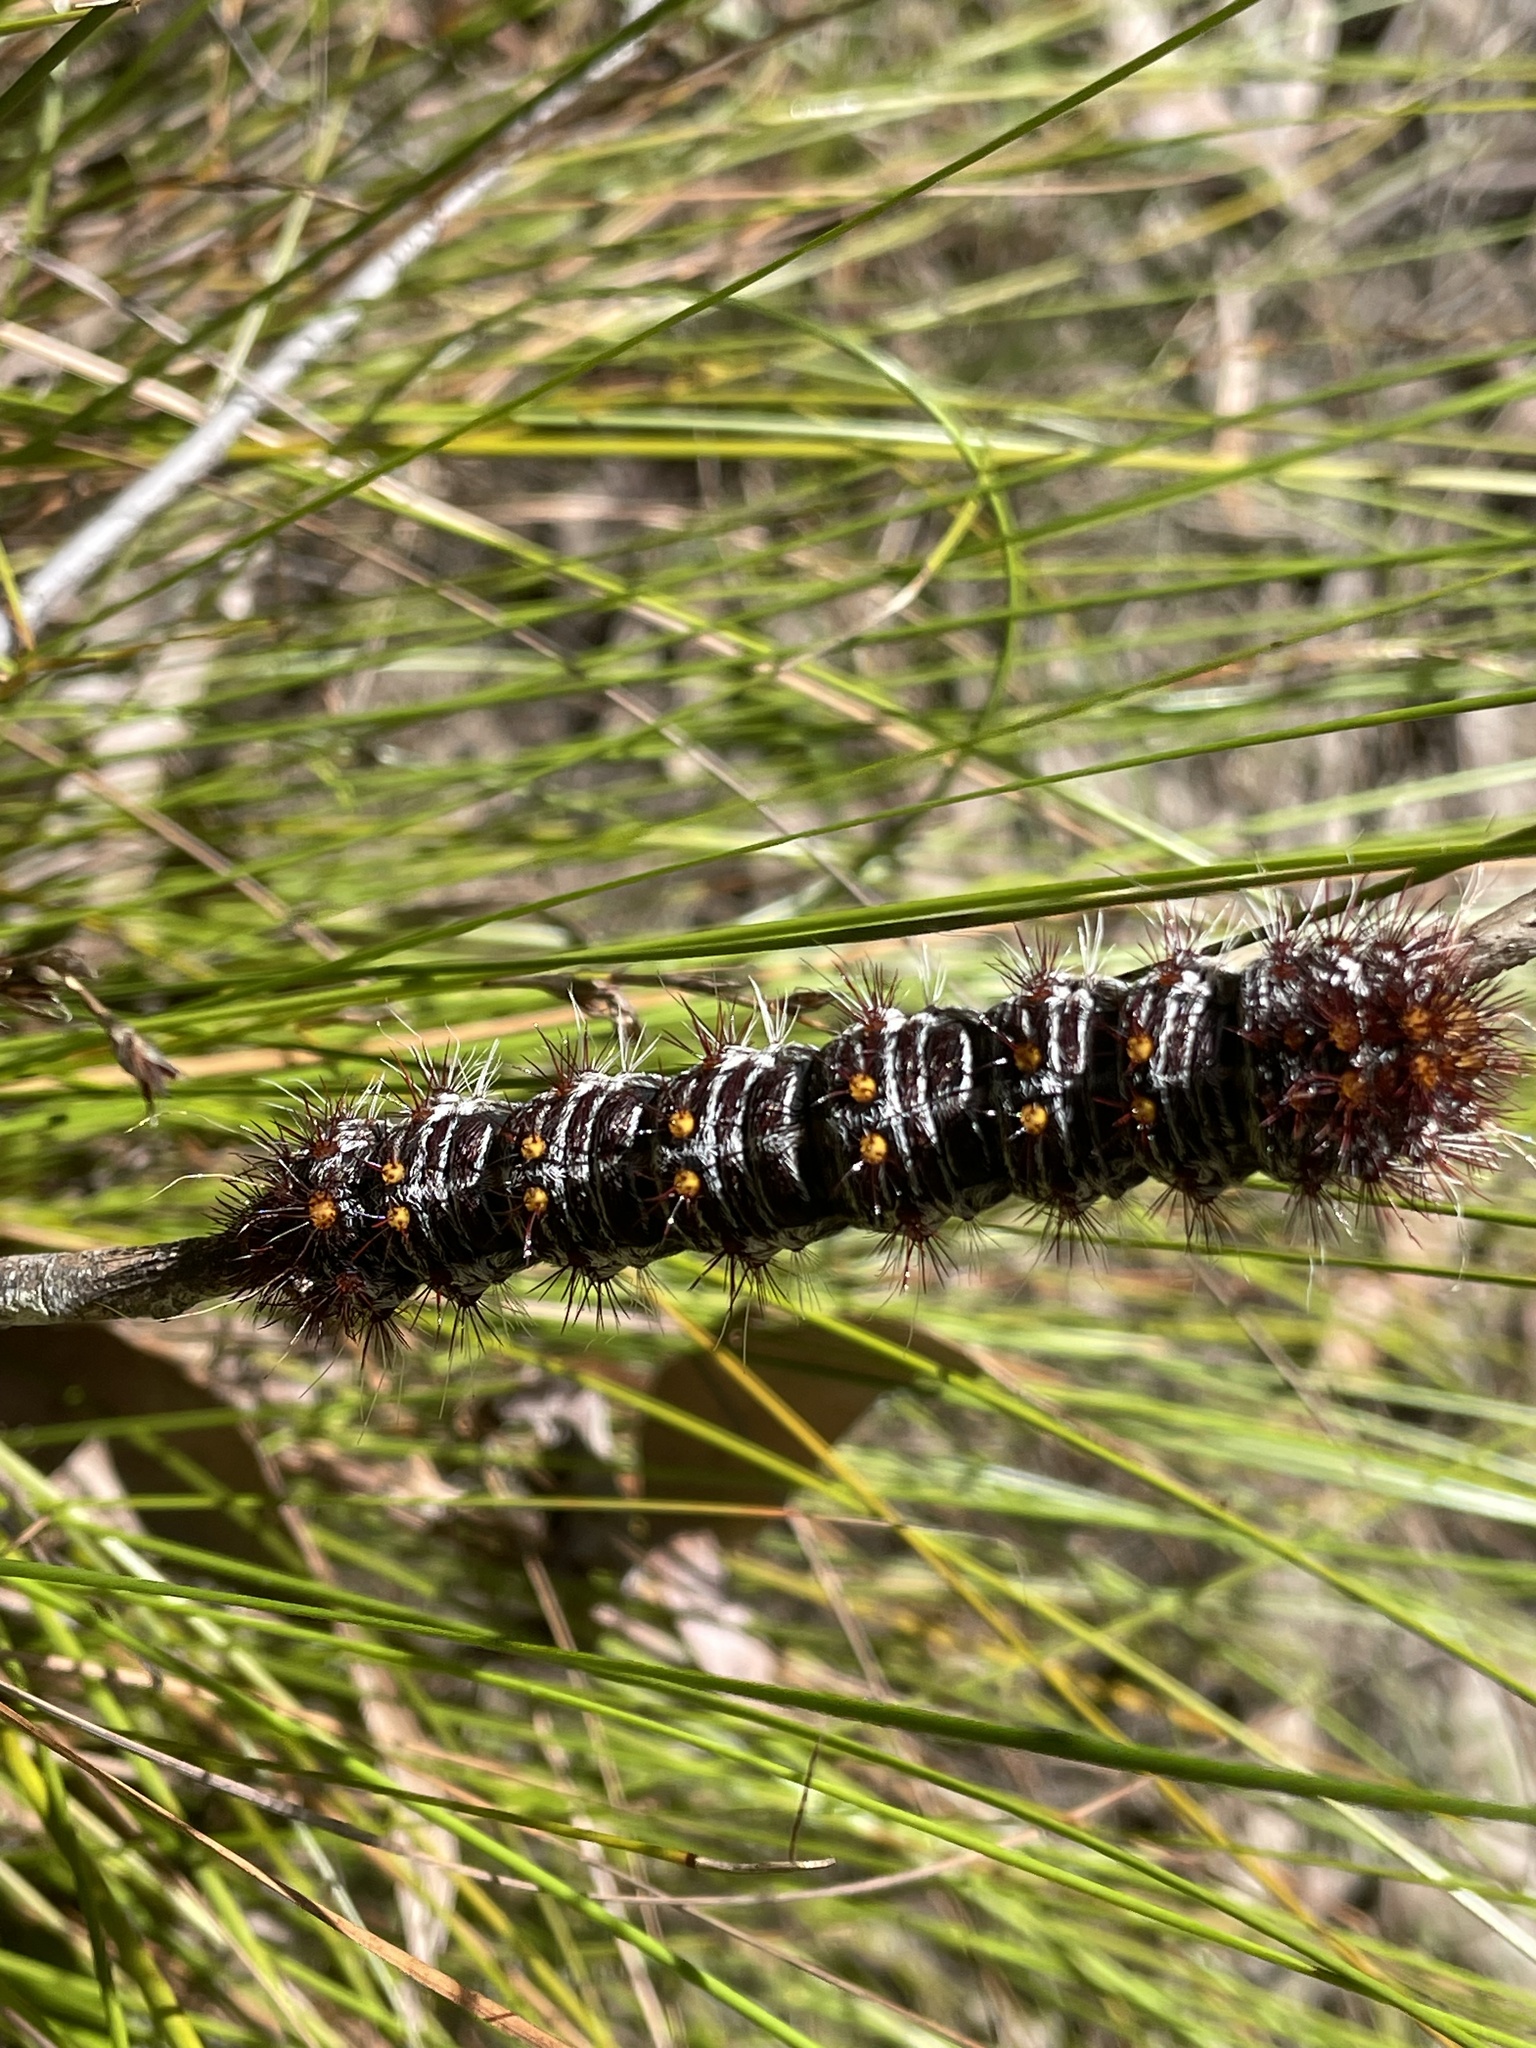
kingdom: Animalia
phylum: Arthropoda
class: Insecta
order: Lepidoptera
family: Anthelidae
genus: Chelepteryx
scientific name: Chelepteryx collesi
